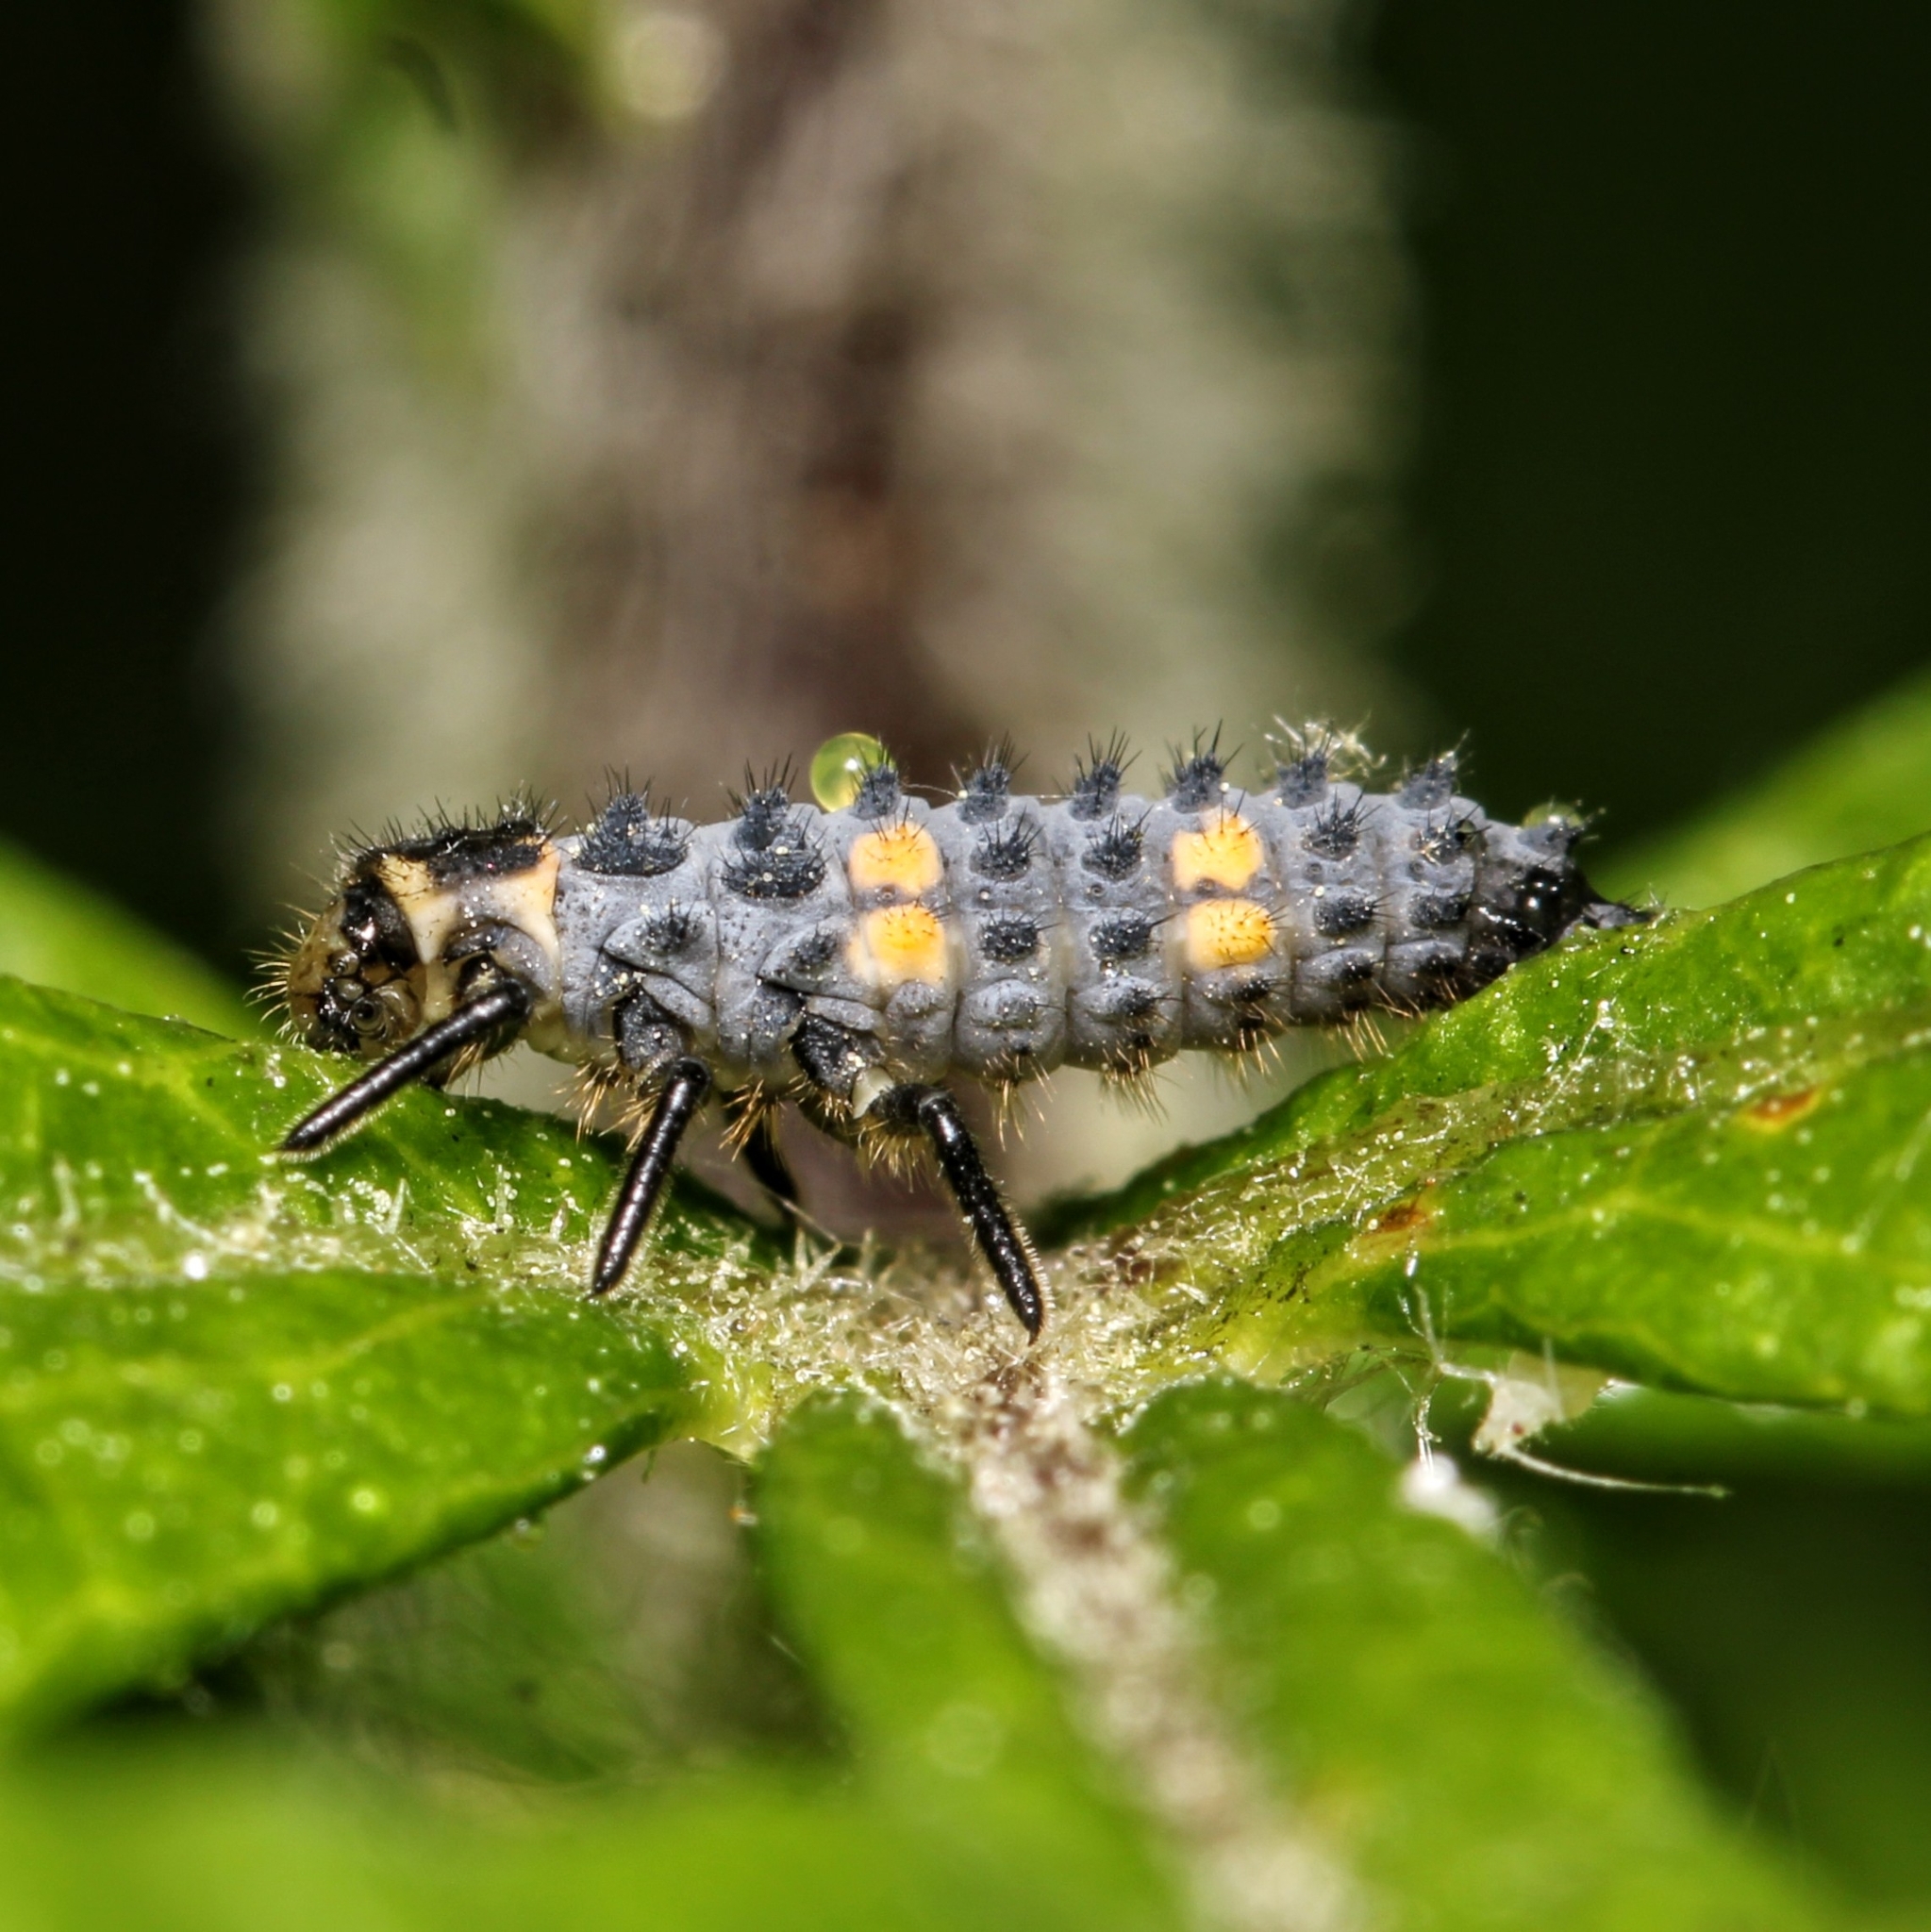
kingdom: Animalia
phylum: Arthropoda
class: Insecta
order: Coleoptera
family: Coccinellidae
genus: Coccinella
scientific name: Coccinella septempunctata
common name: Sevenspotted lady beetle
